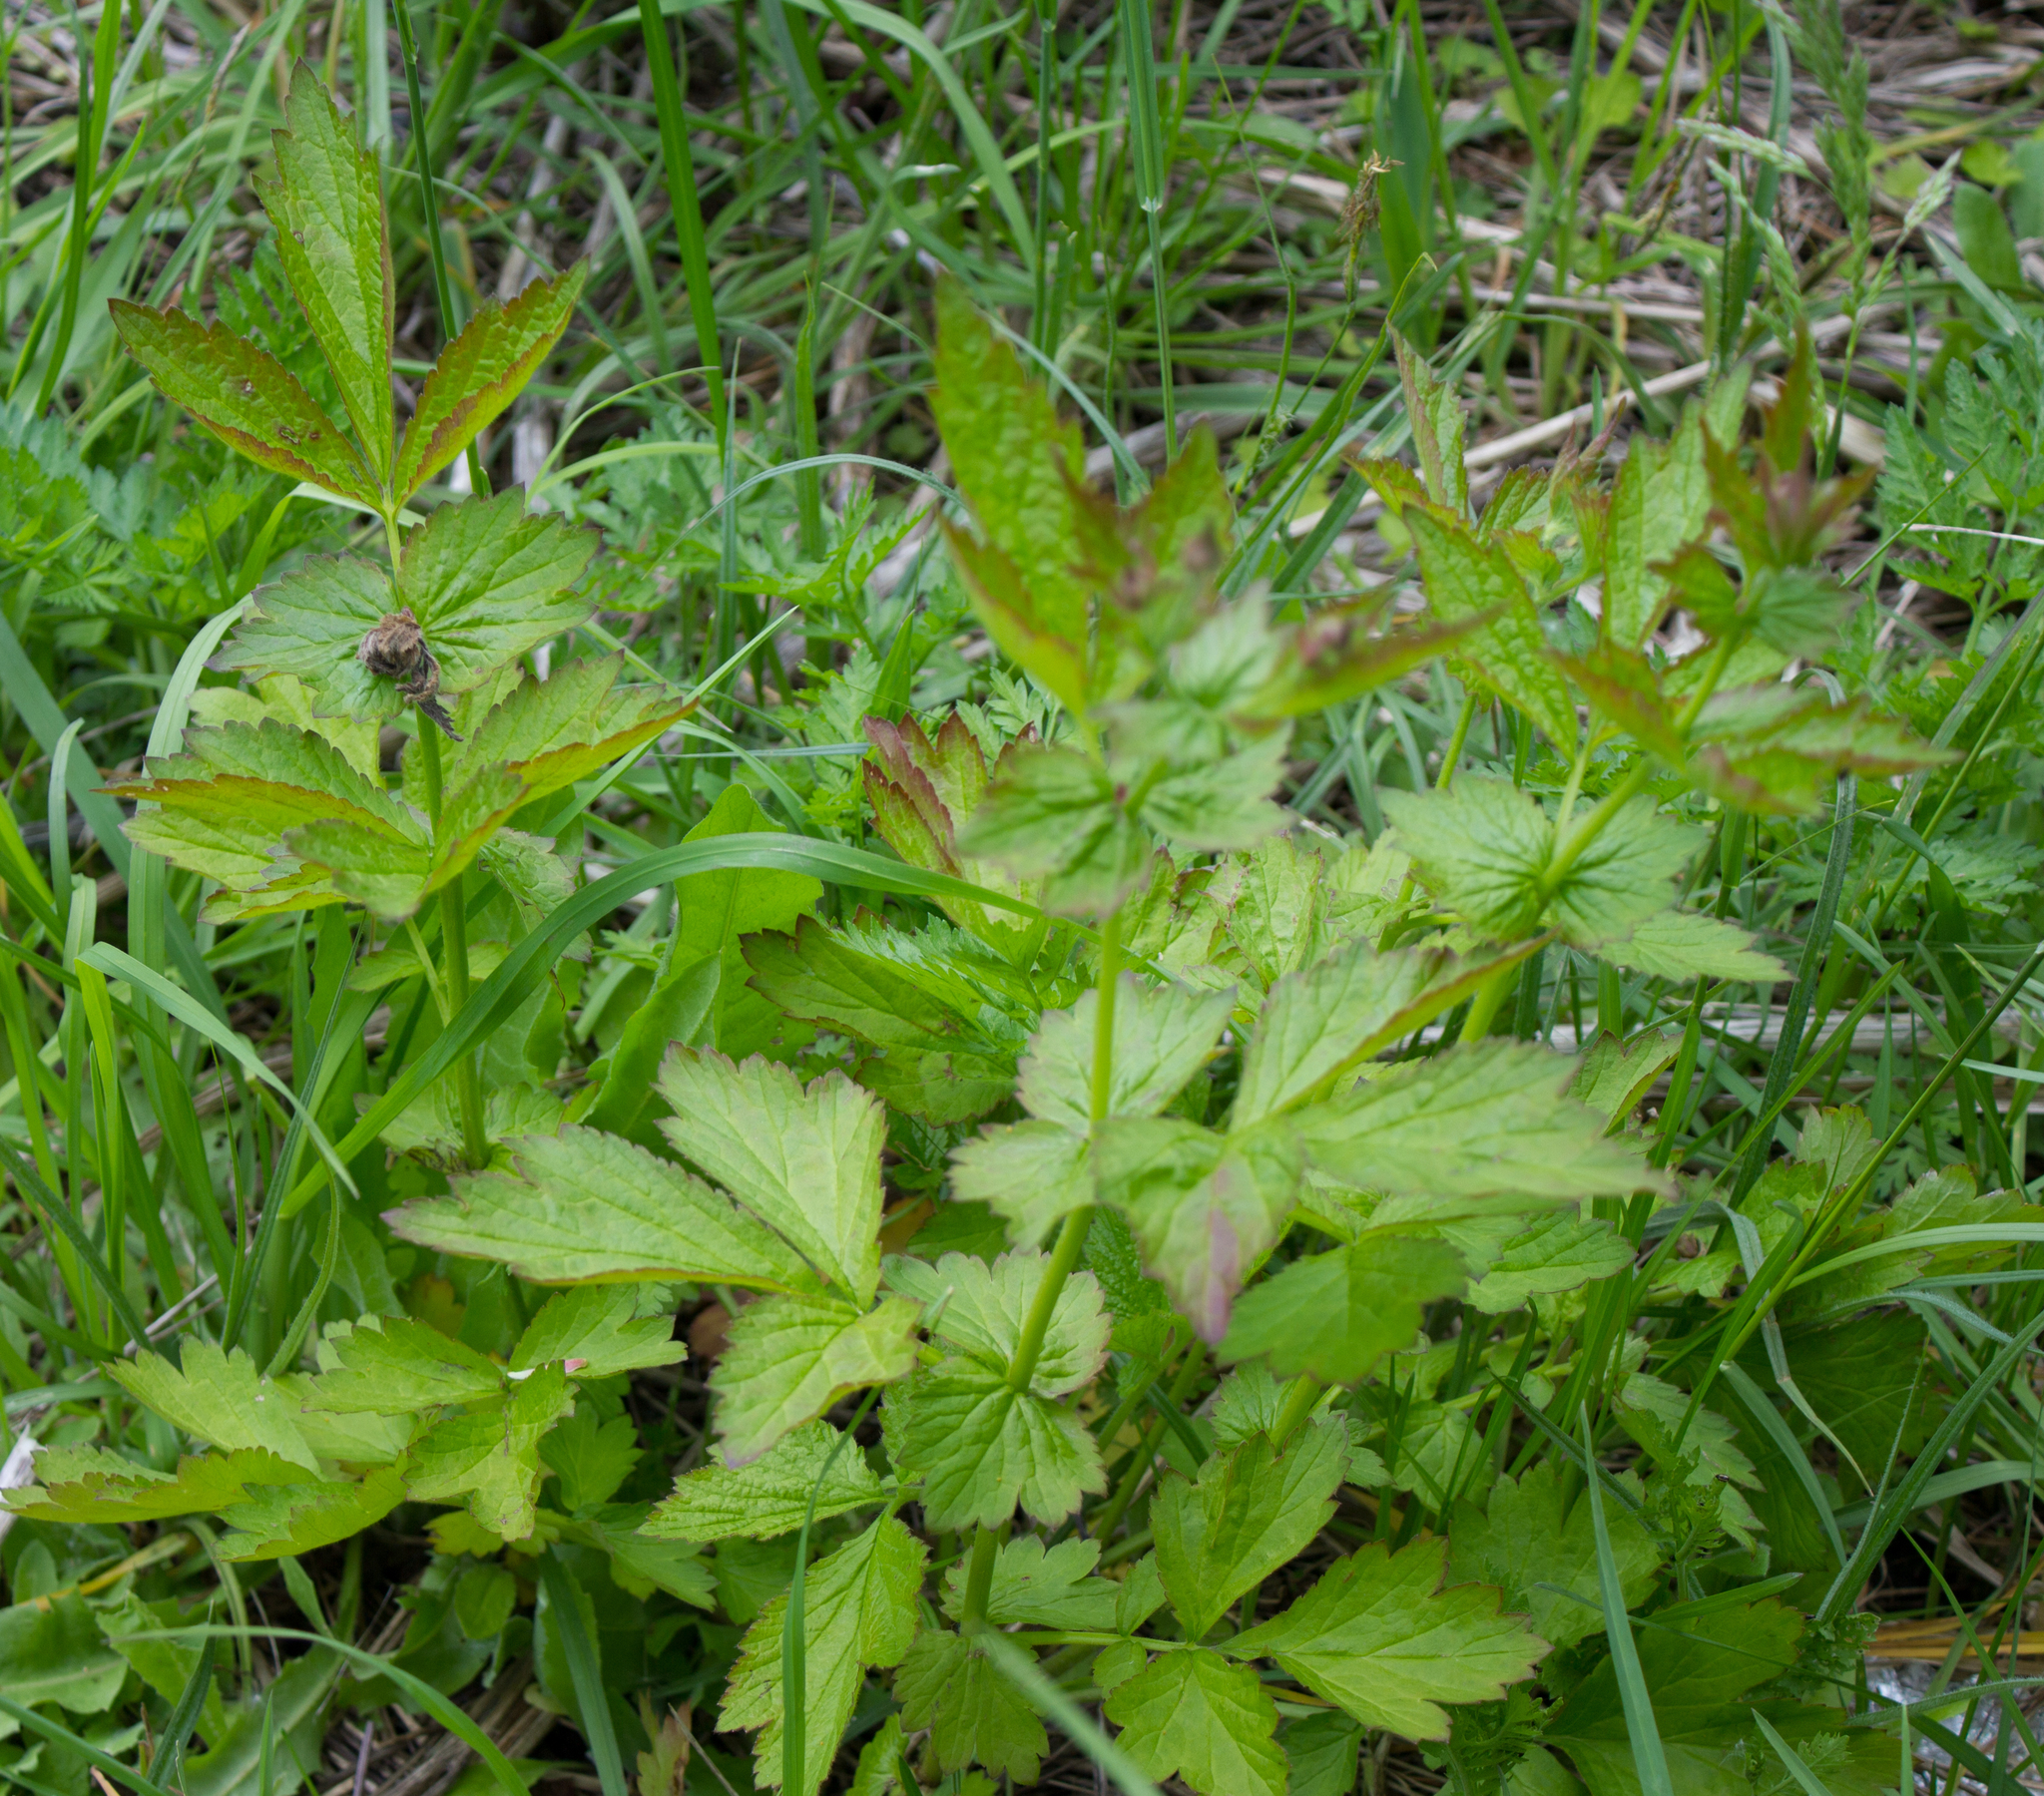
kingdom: Plantae
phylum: Tracheophyta
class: Magnoliopsida
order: Rosales
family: Rosaceae
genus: Geum
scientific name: Geum urbanum
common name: Wood avens
